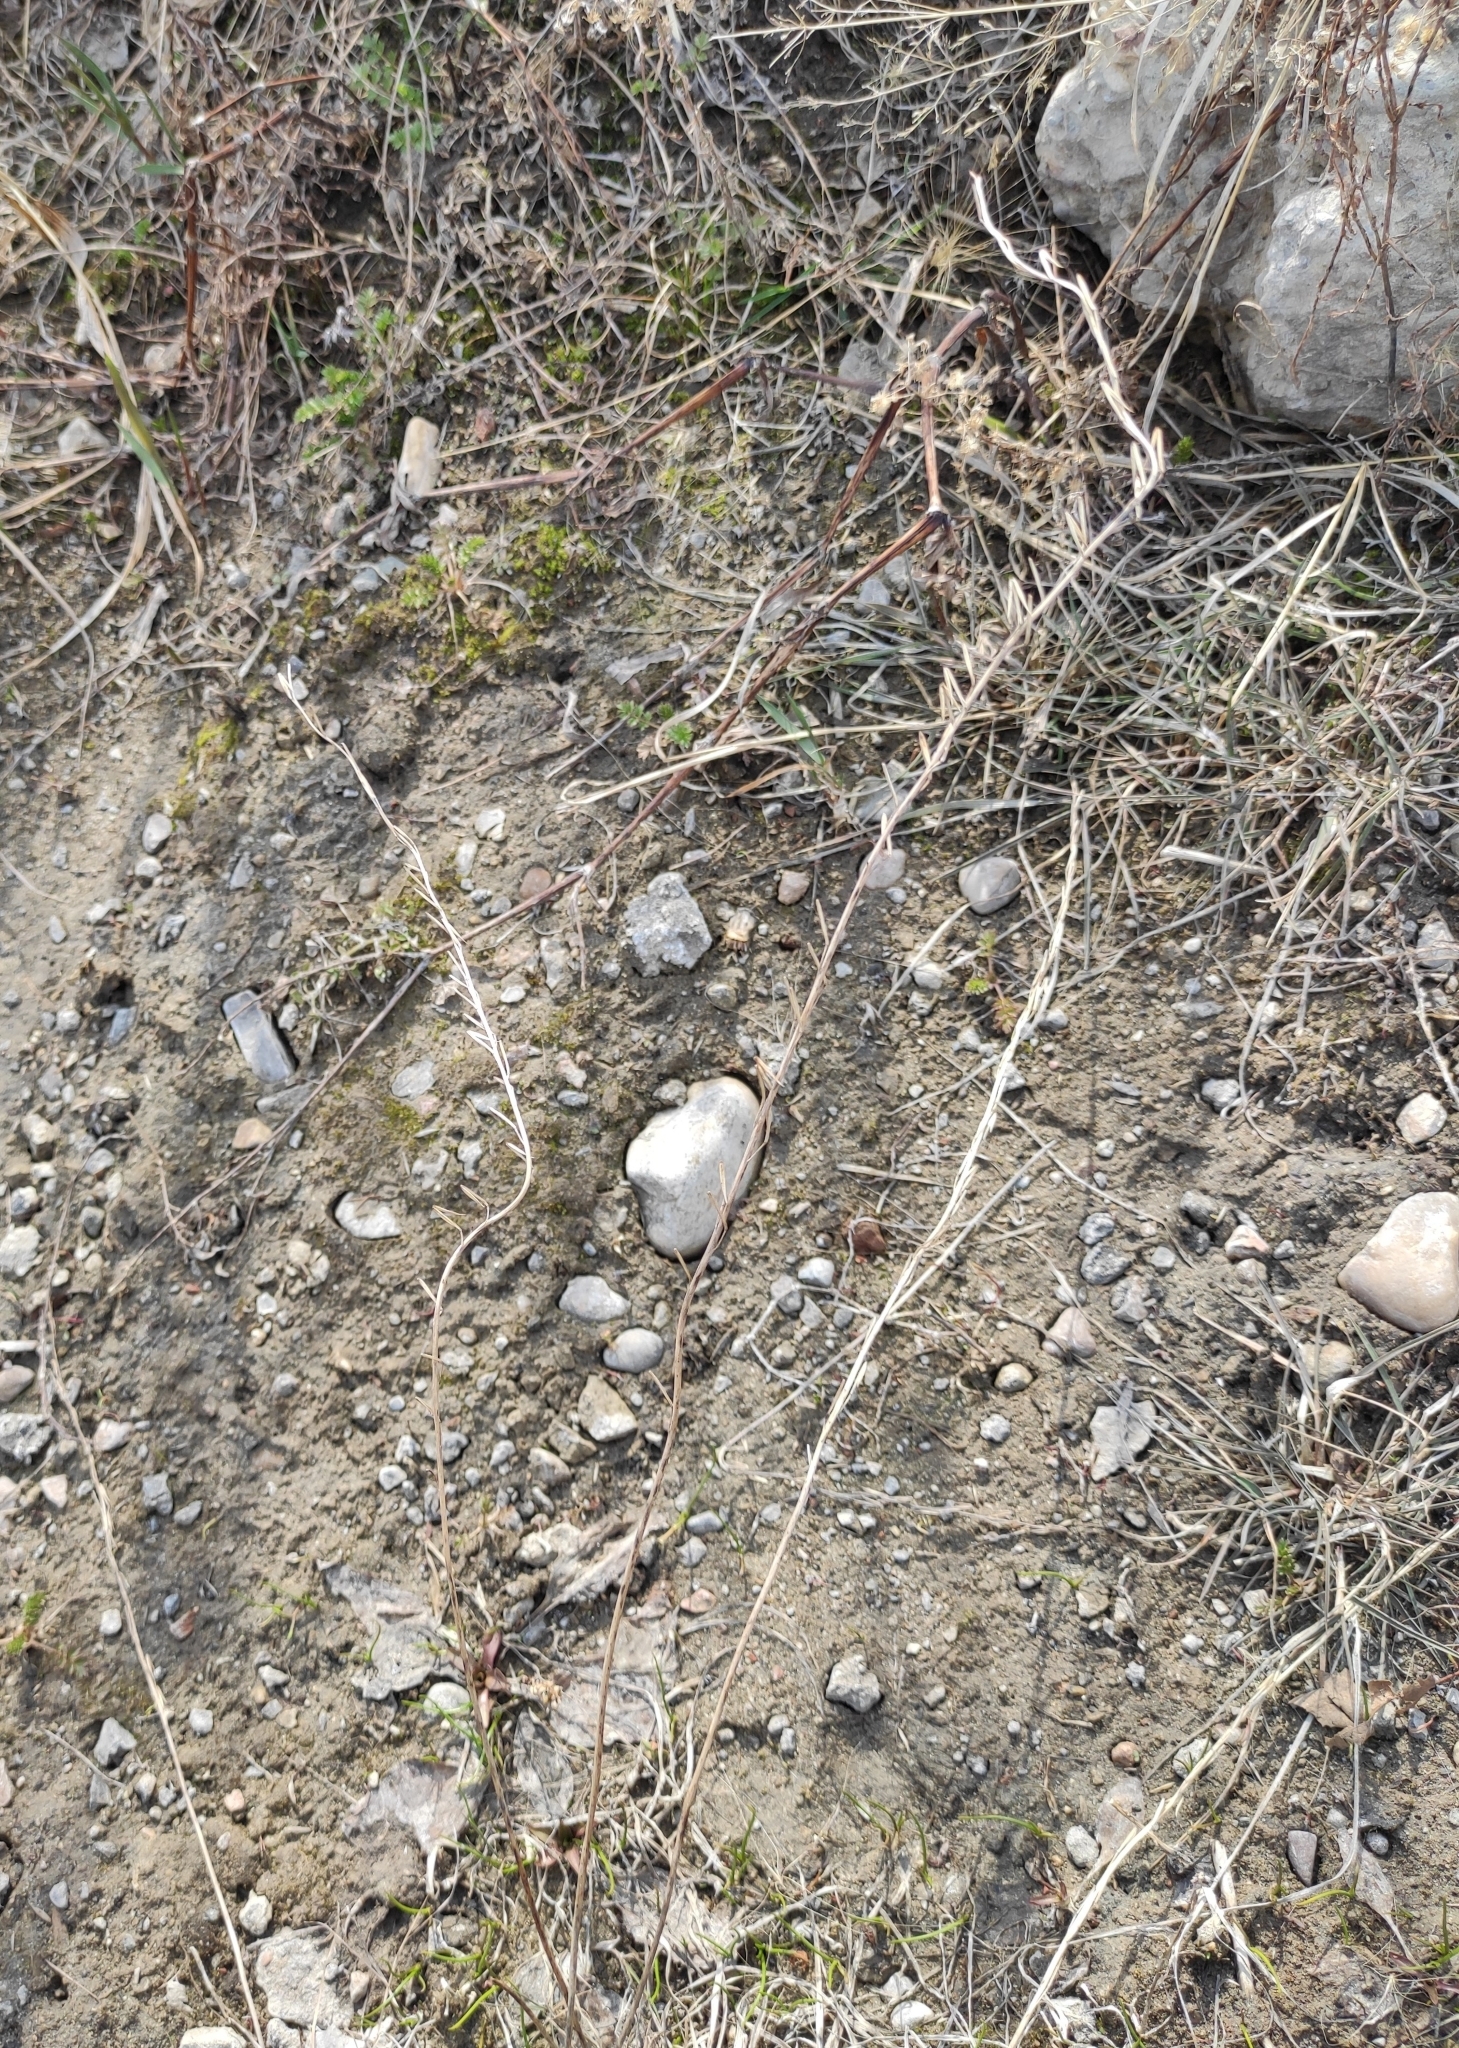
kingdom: Plantae
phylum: Tracheophyta
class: Liliopsida
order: Alismatales
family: Juncaginaceae
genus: Triglochin
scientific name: Triglochin palustris
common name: Marsh arrowgrass
